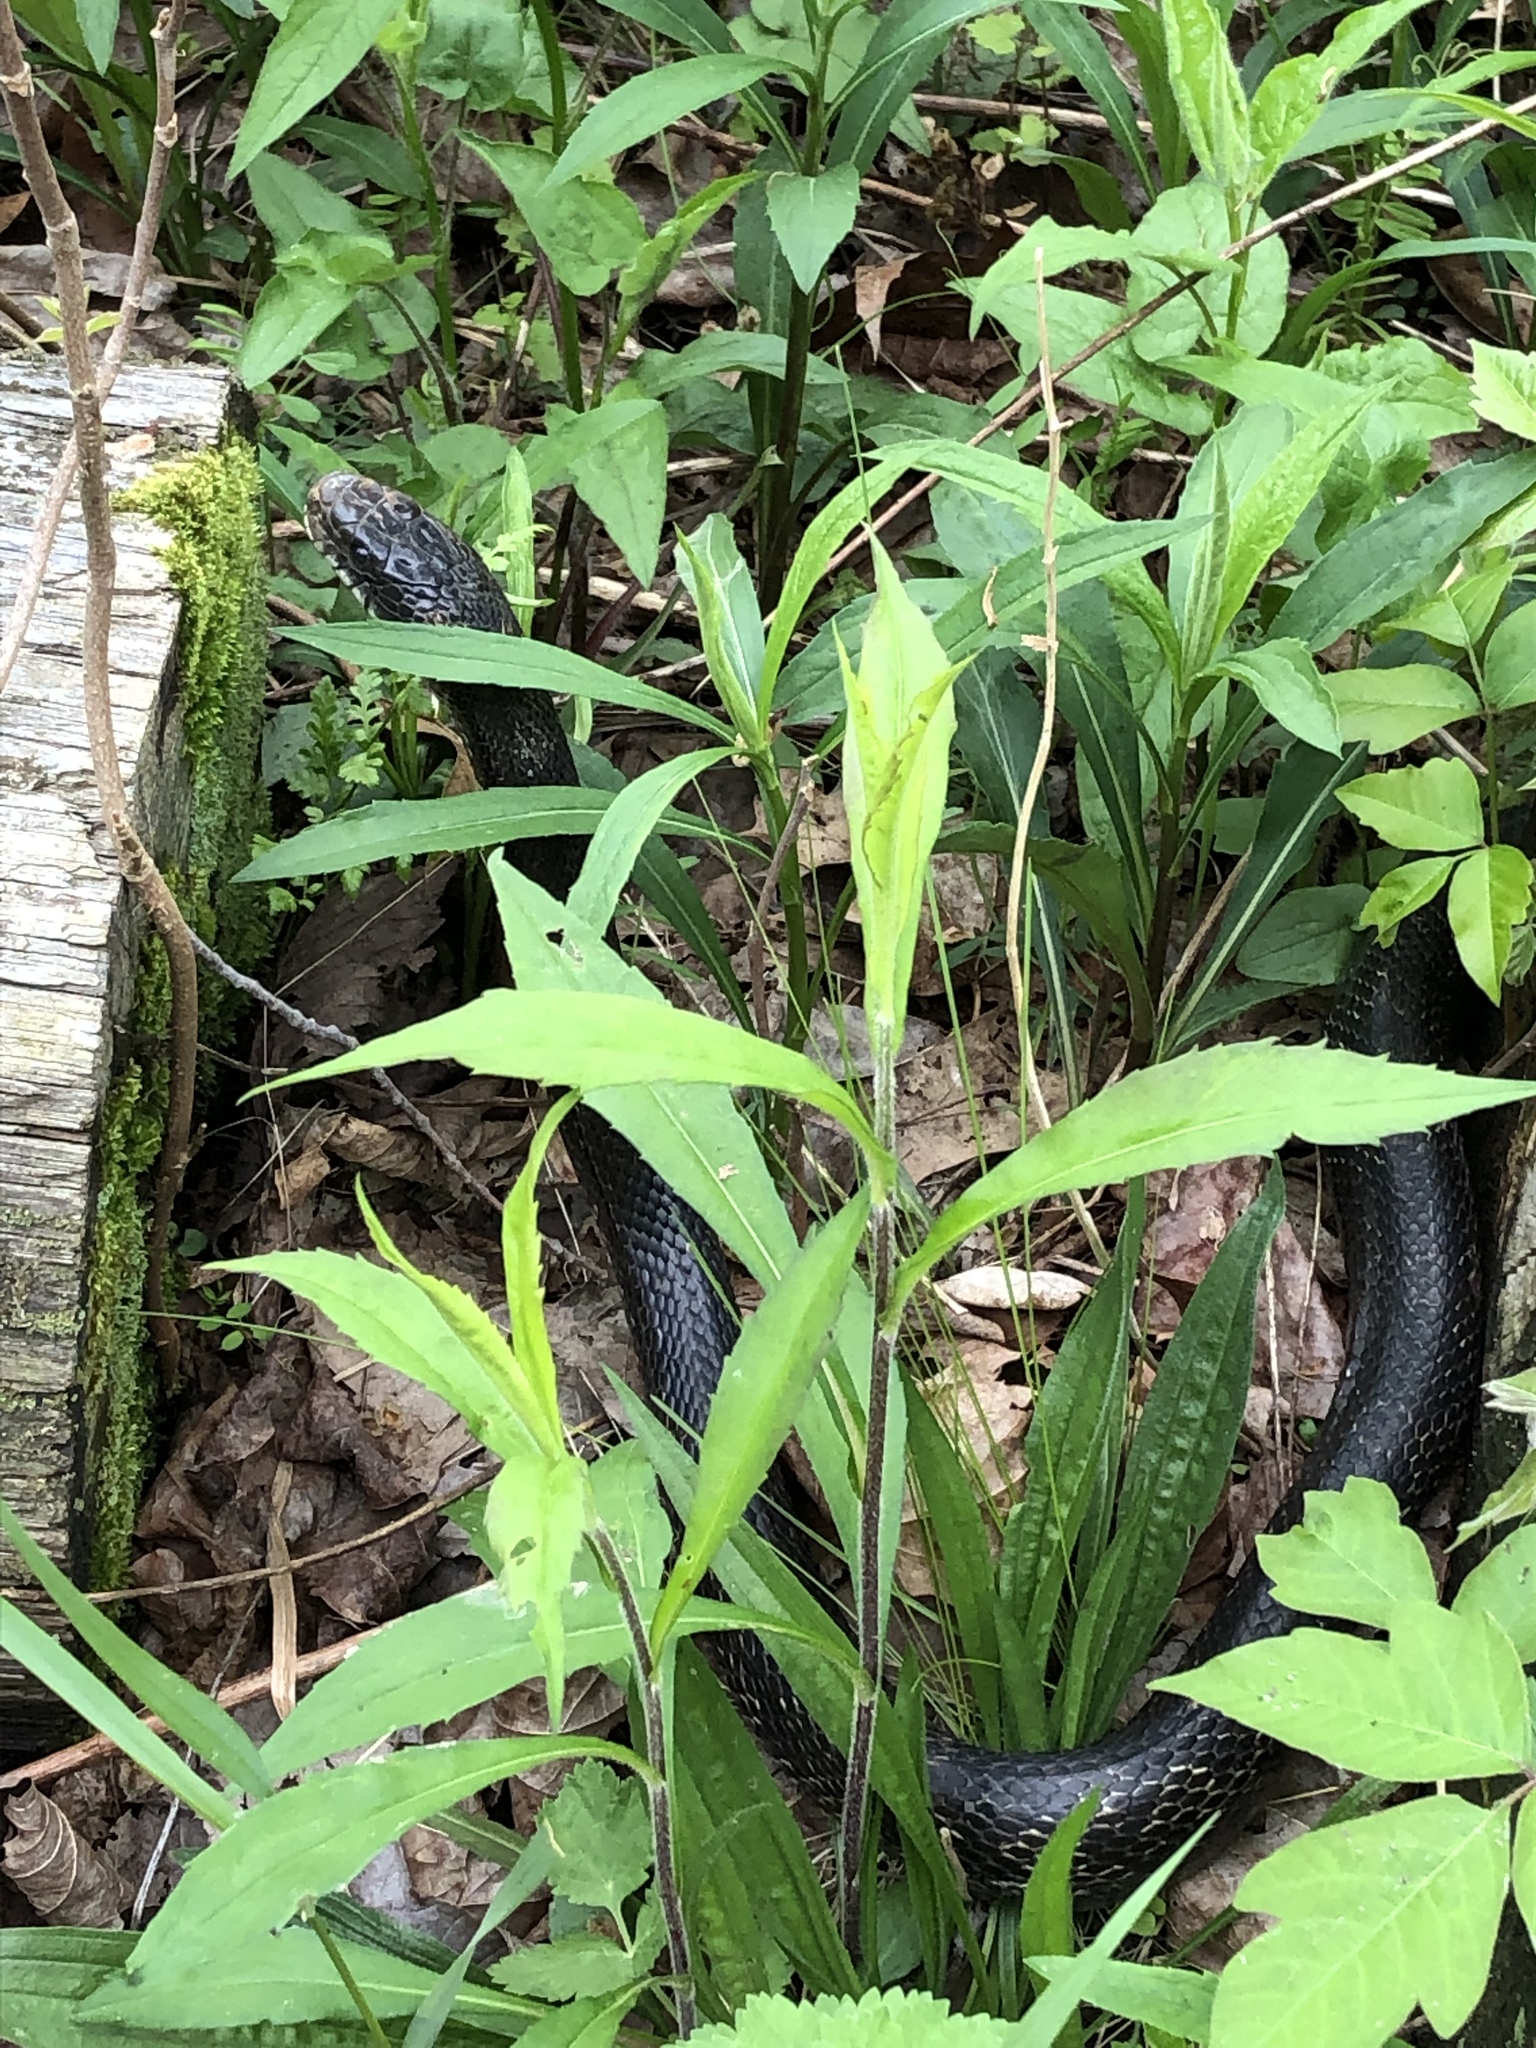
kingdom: Animalia
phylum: Chordata
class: Squamata
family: Colubridae
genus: Pantherophis
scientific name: Pantherophis
